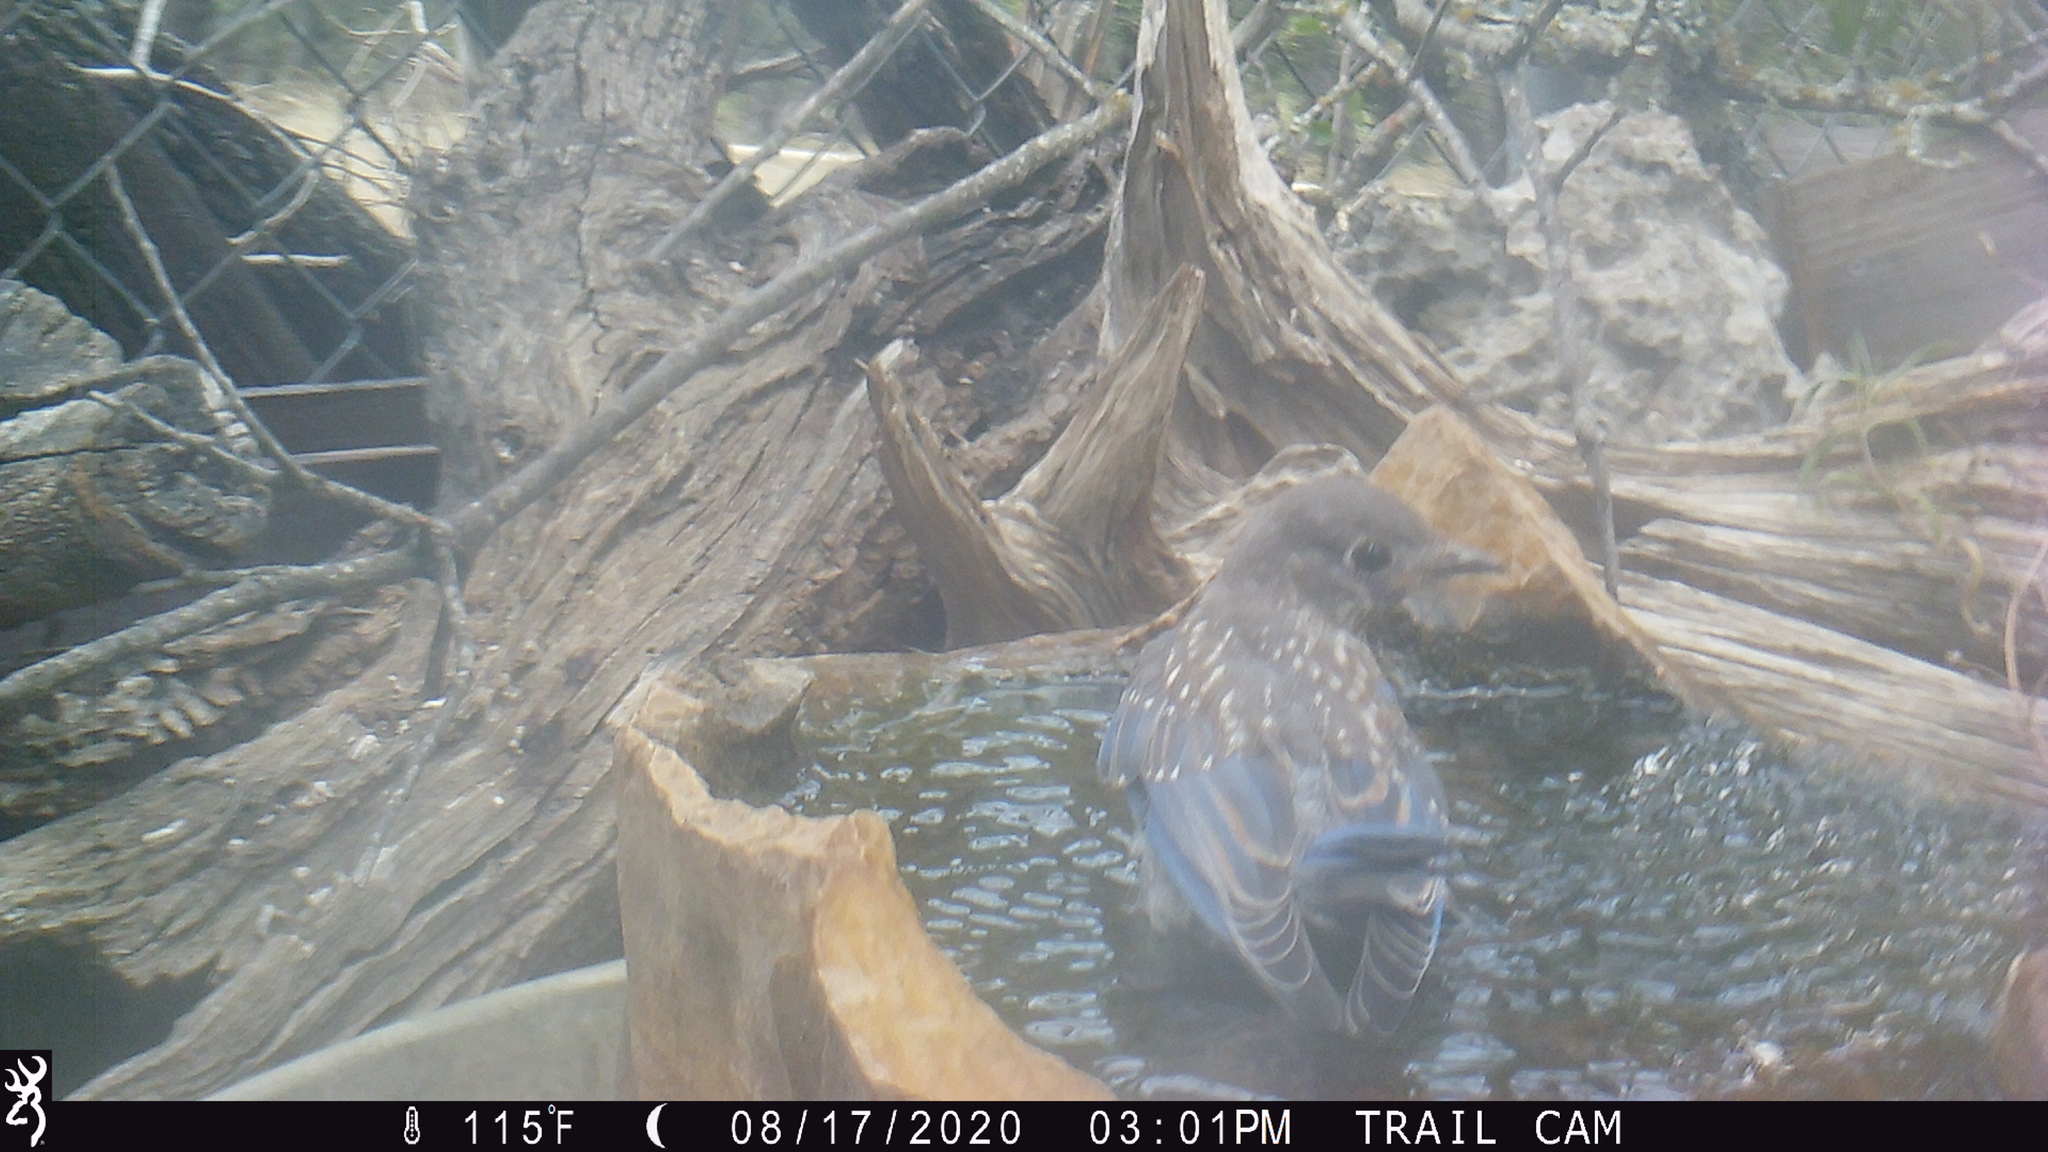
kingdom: Animalia
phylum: Chordata
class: Aves
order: Passeriformes
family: Turdidae
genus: Sialia
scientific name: Sialia sialis
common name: Eastern bluebird
